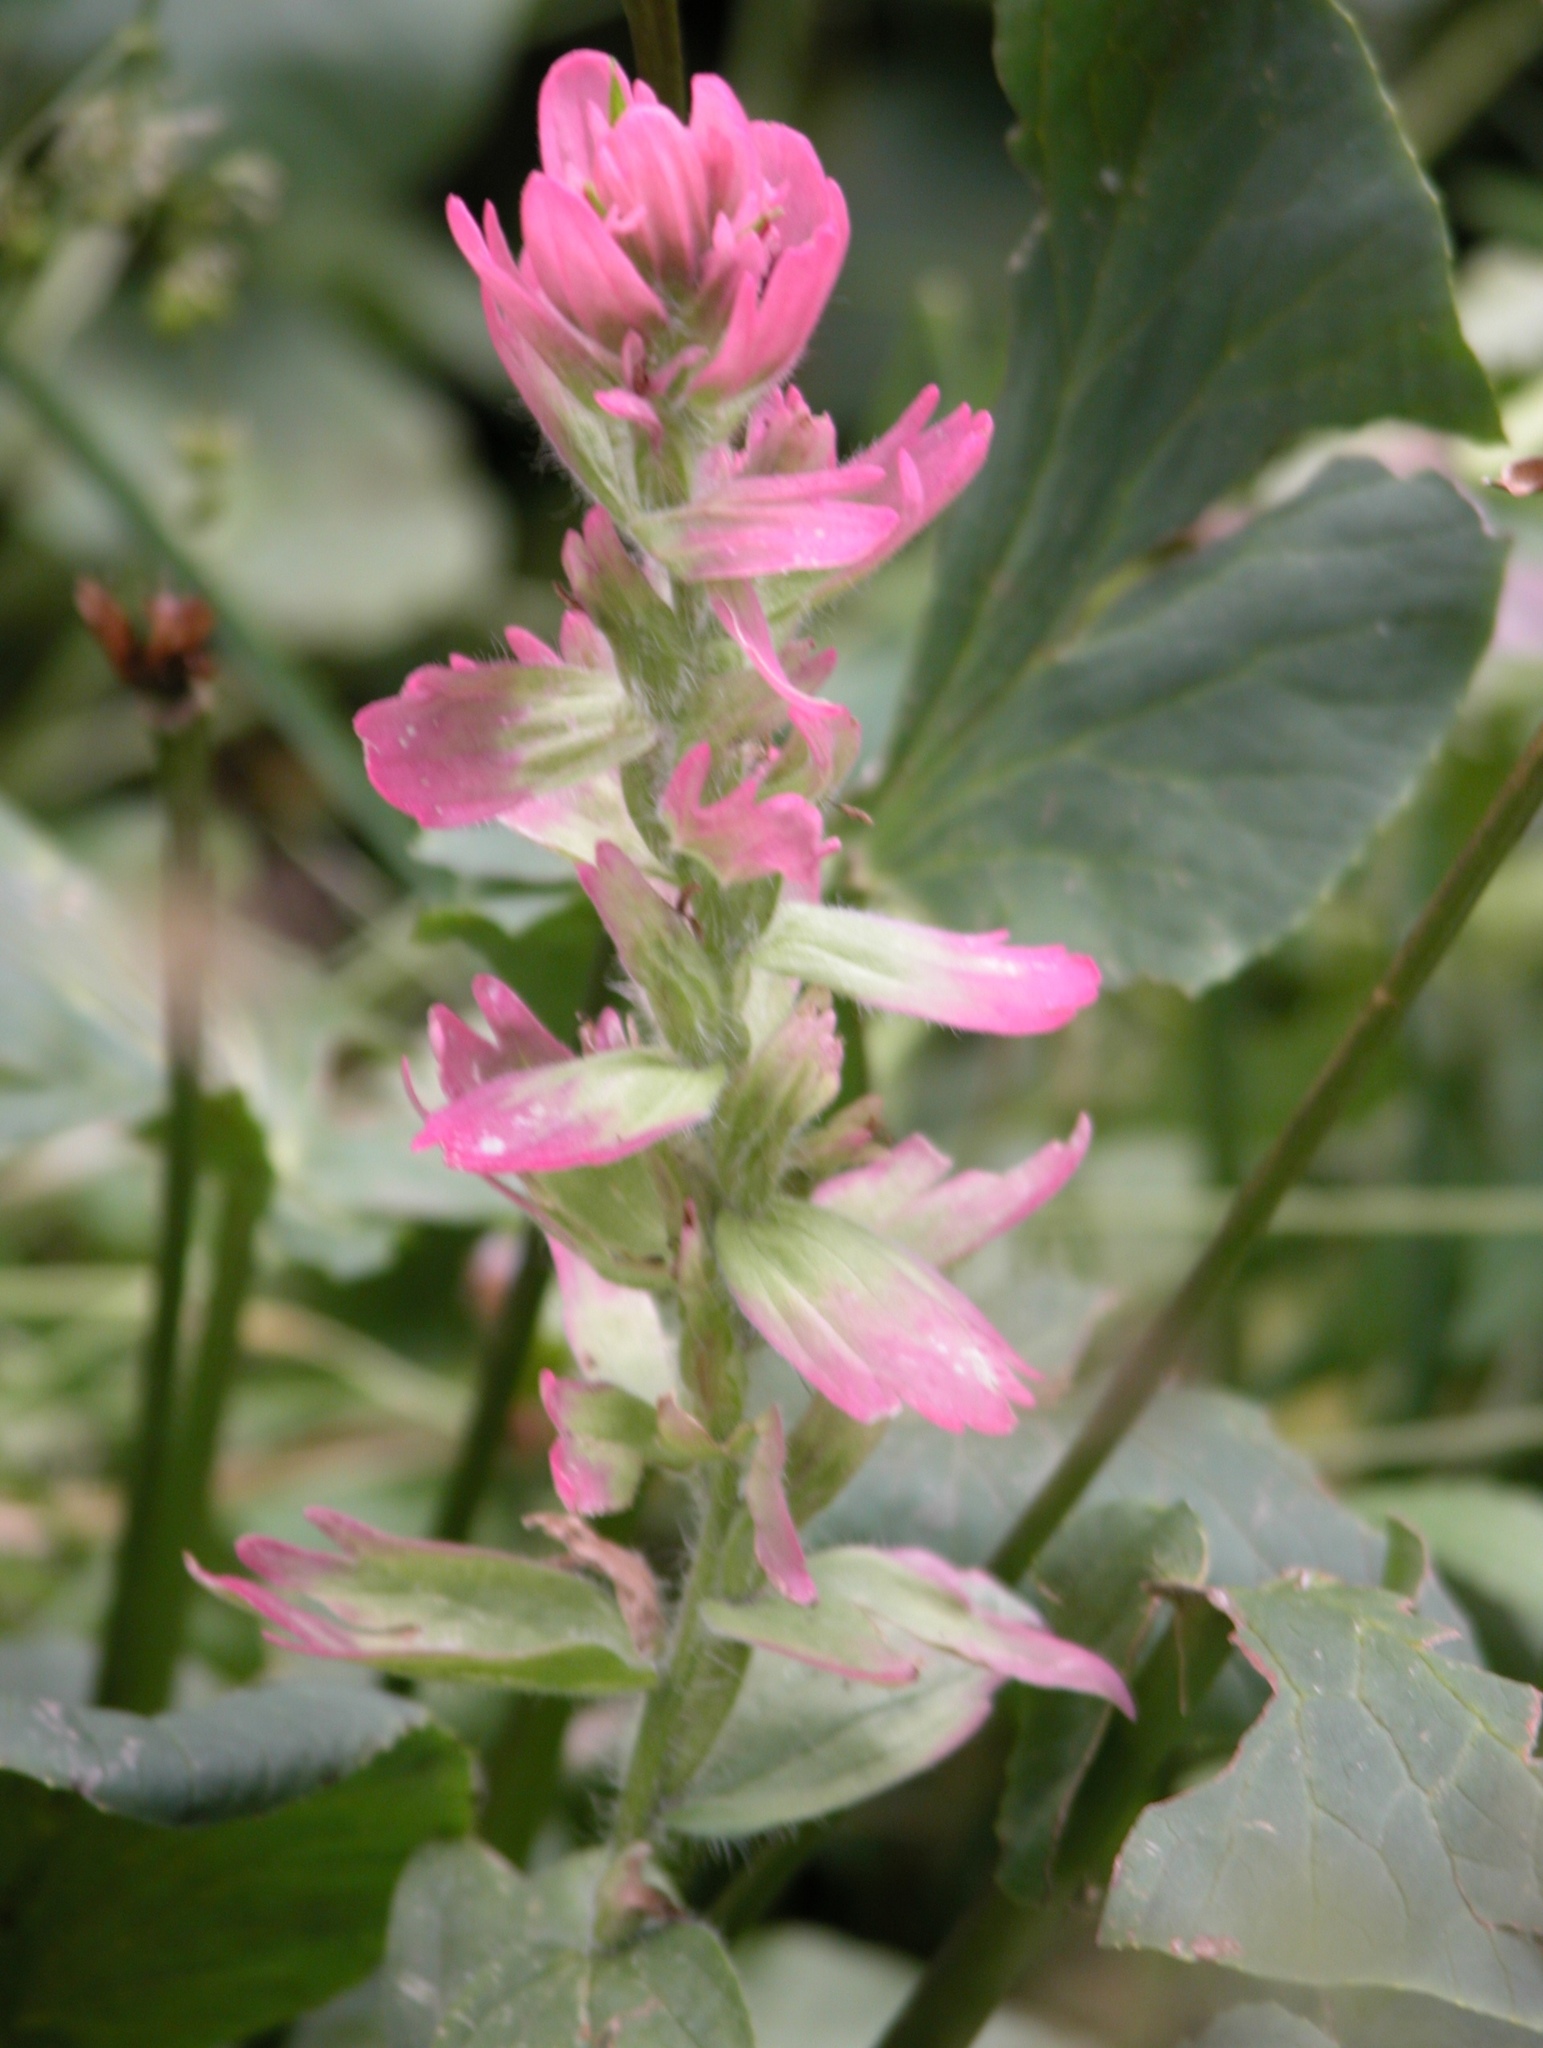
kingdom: Plantae
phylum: Tracheophyta
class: Magnoliopsida
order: Lamiales
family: Orobanchaceae
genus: Castilleja
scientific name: Castilleja rhexifolia
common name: Rocky mountain paintbrush
